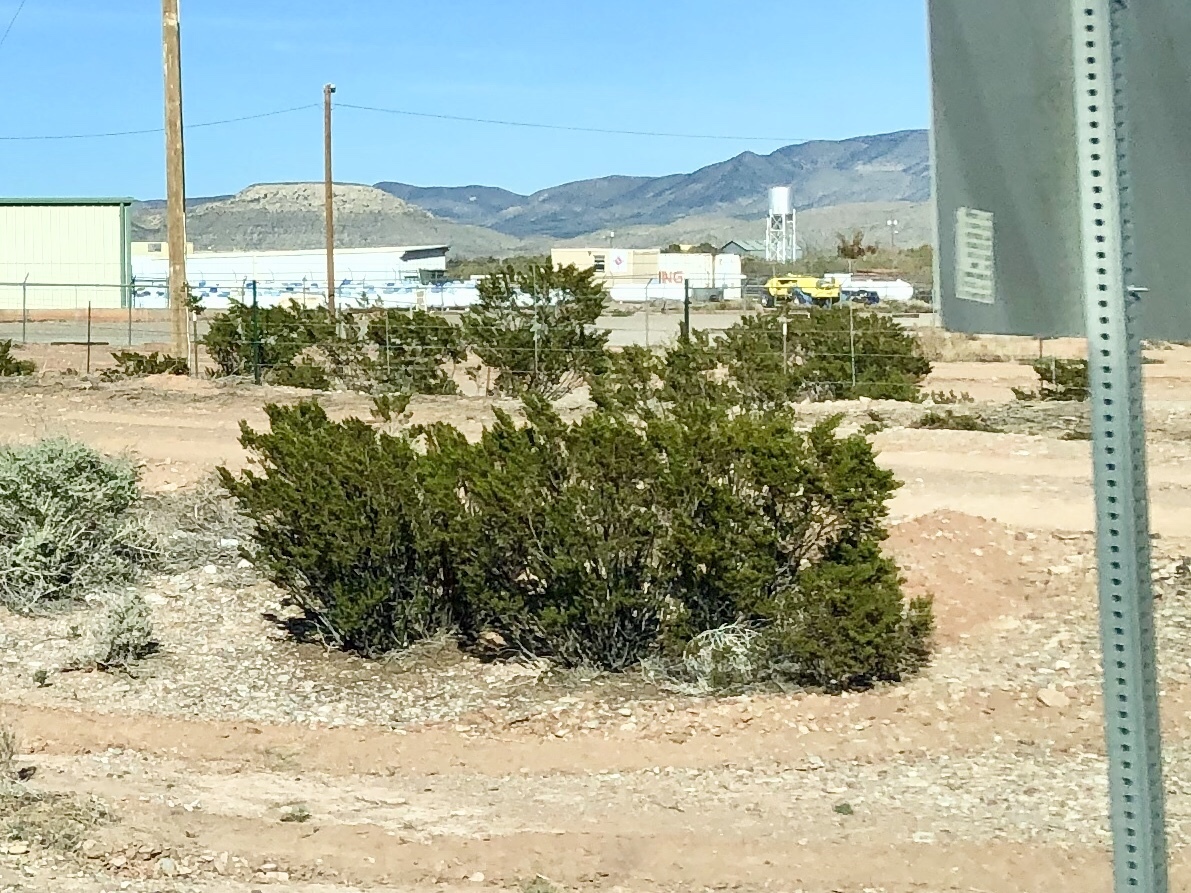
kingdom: Plantae
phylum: Tracheophyta
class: Magnoliopsida
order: Zygophyllales
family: Zygophyllaceae
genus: Larrea
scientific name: Larrea tridentata
